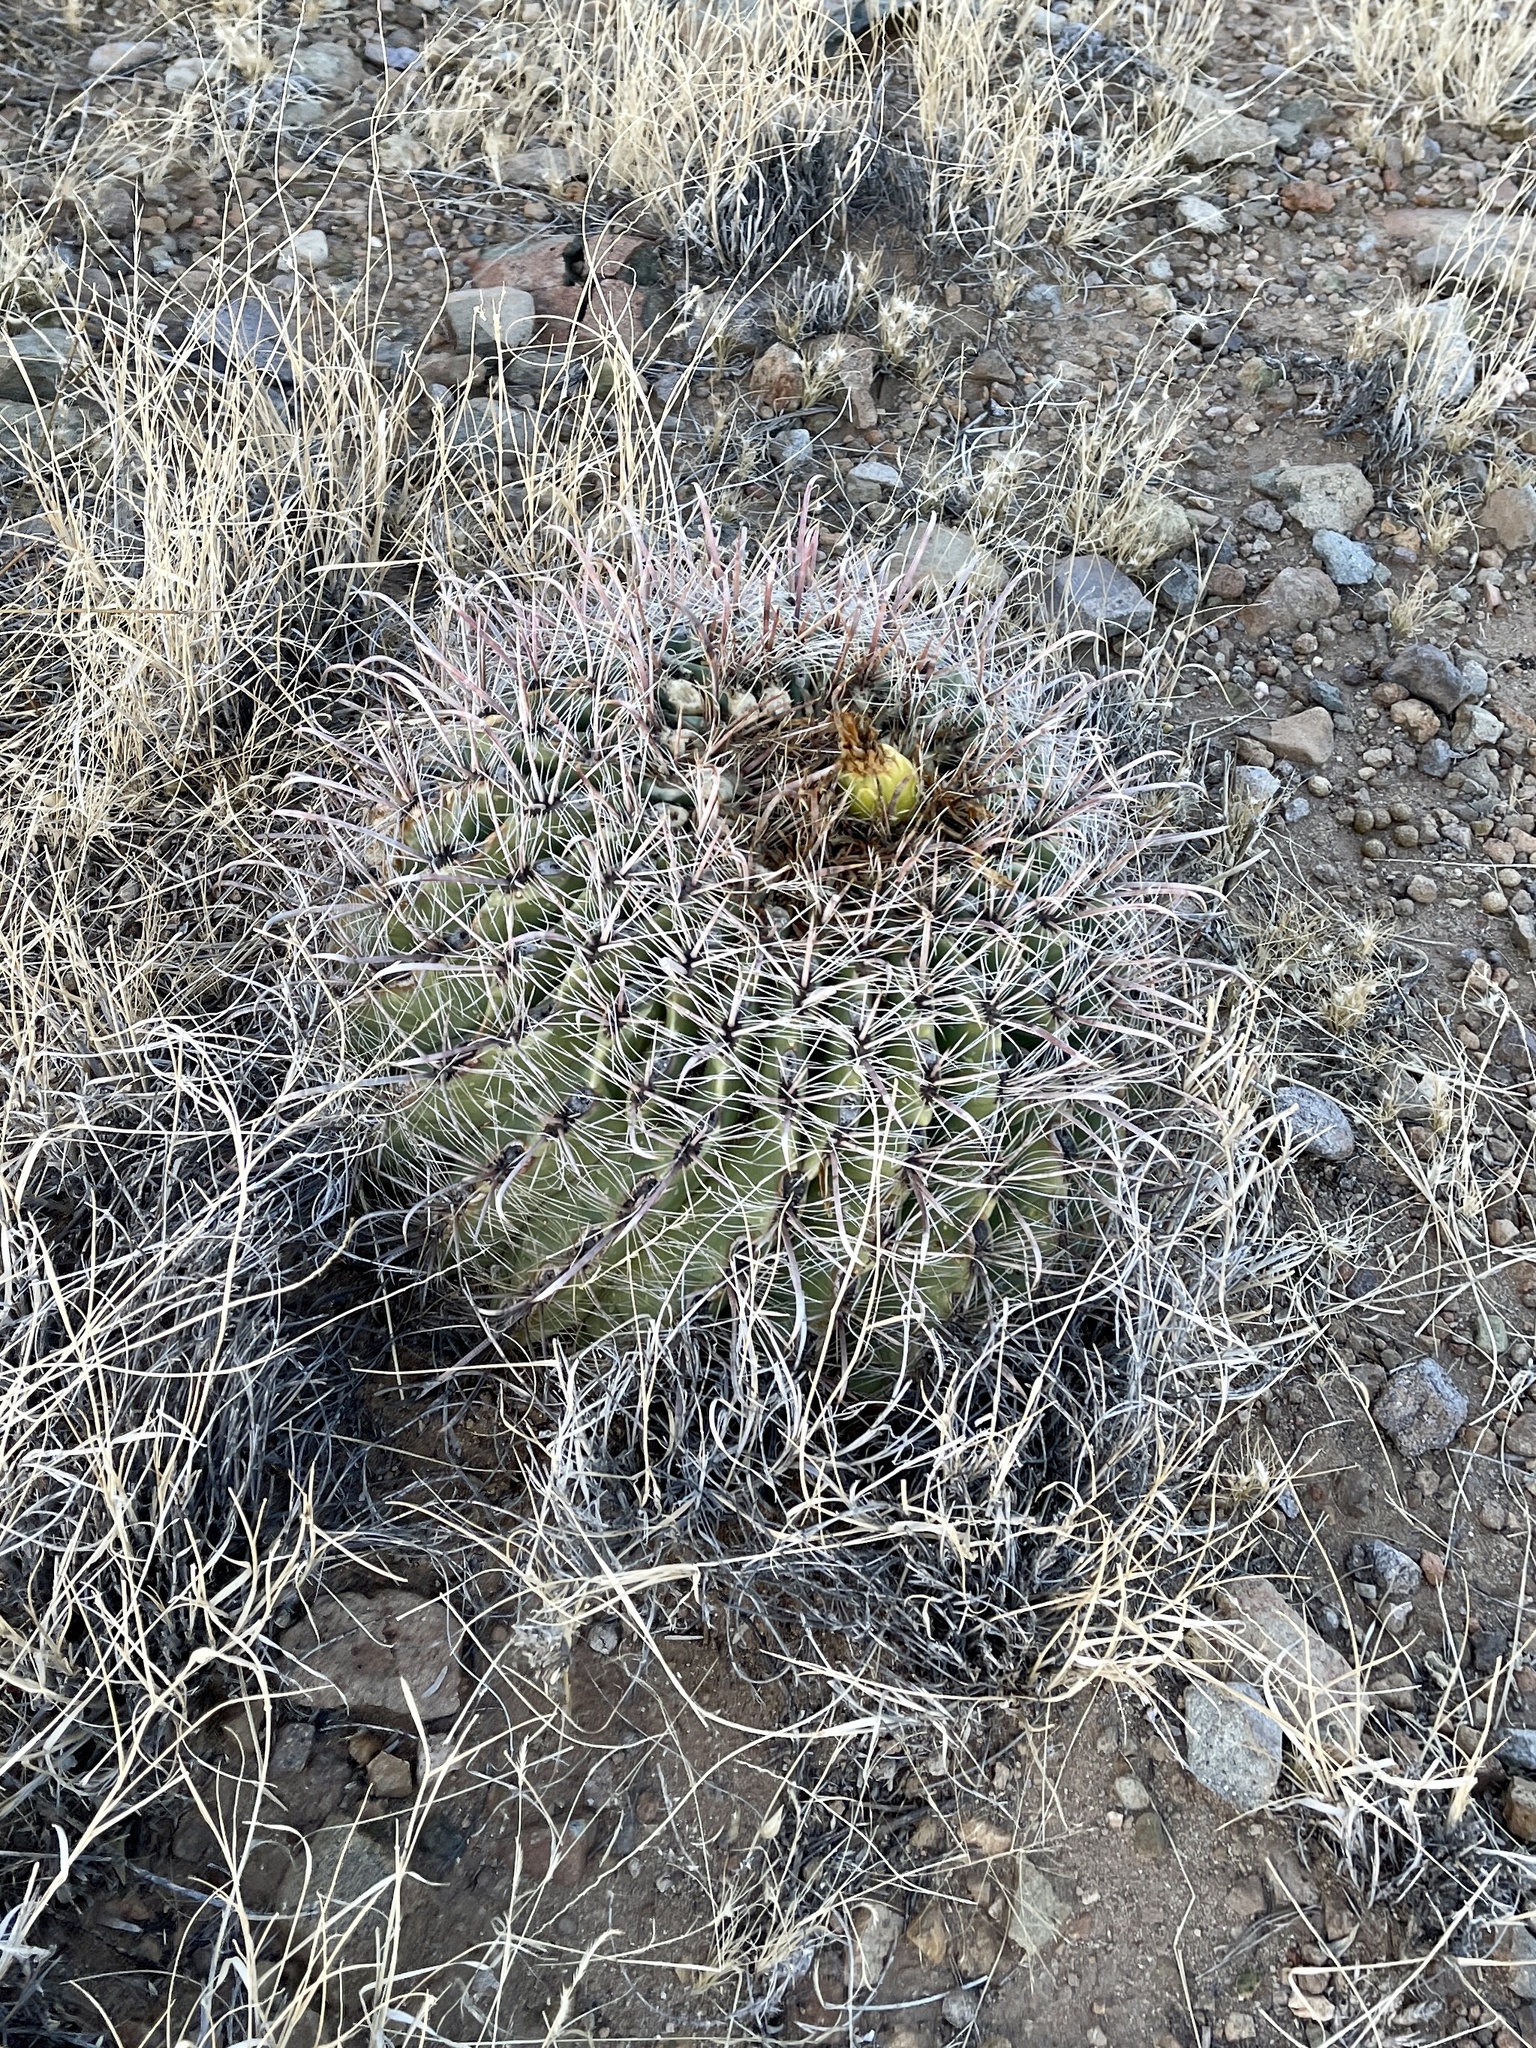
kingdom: Plantae
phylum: Tracheophyta
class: Magnoliopsida
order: Caryophyllales
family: Cactaceae
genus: Ferocactus
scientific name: Ferocactus wislizeni
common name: Candy barrel cactus
